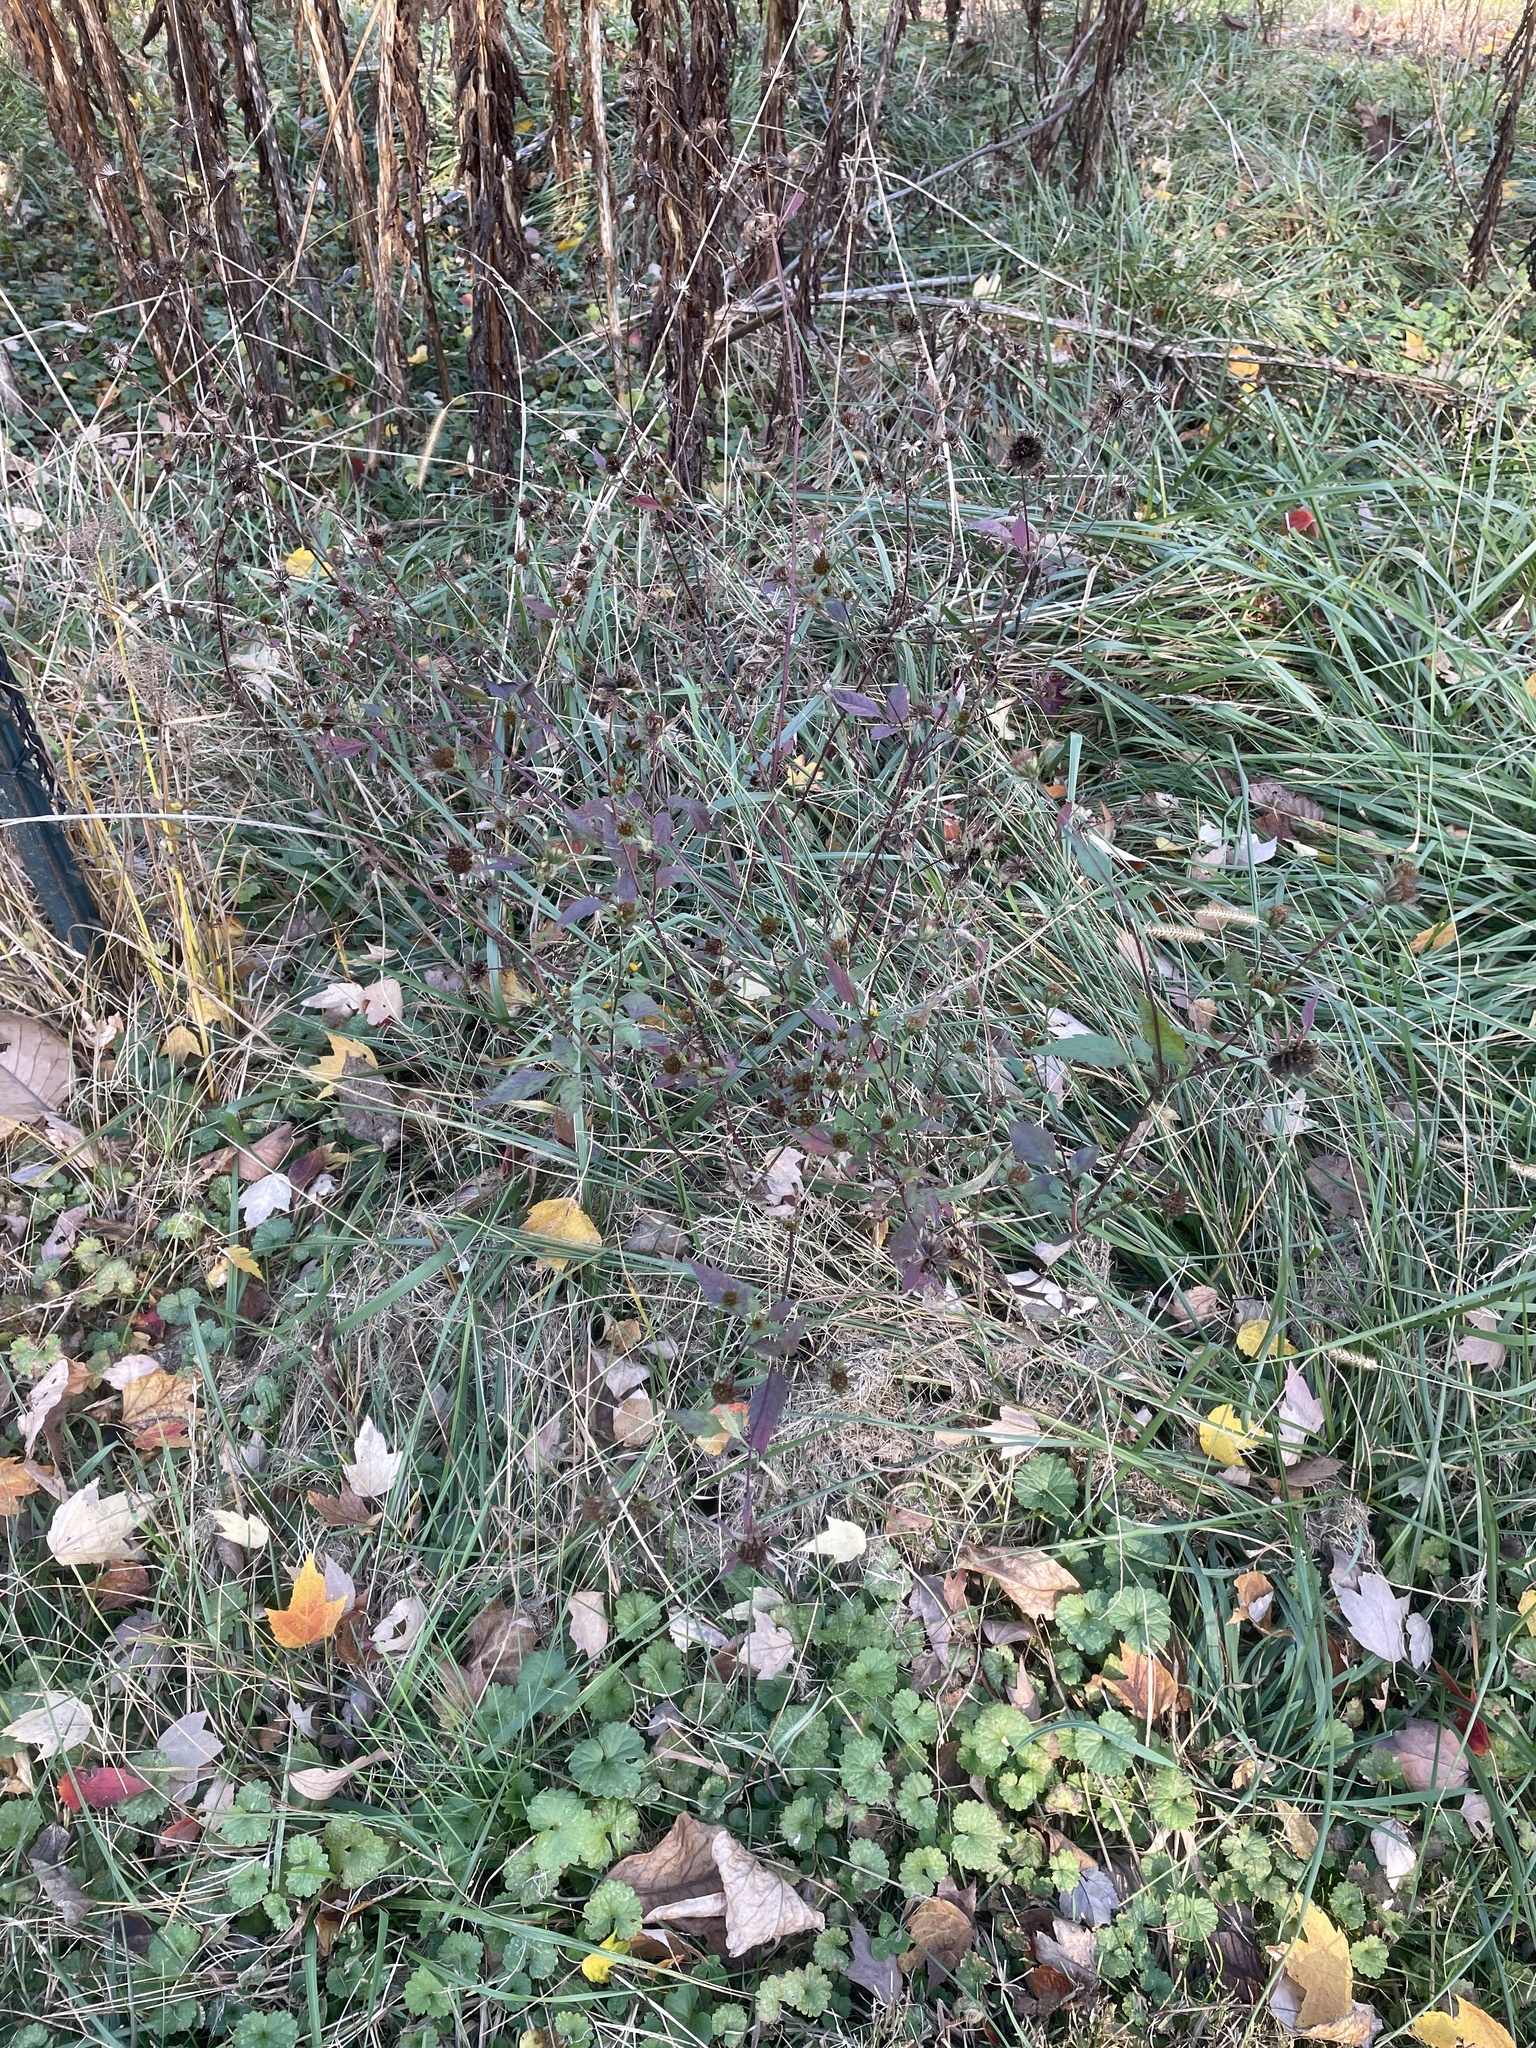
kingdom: Plantae
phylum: Tracheophyta
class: Magnoliopsida
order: Asterales
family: Asteraceae
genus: Bidens
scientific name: Bidens frondosa
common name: Beggarticks
